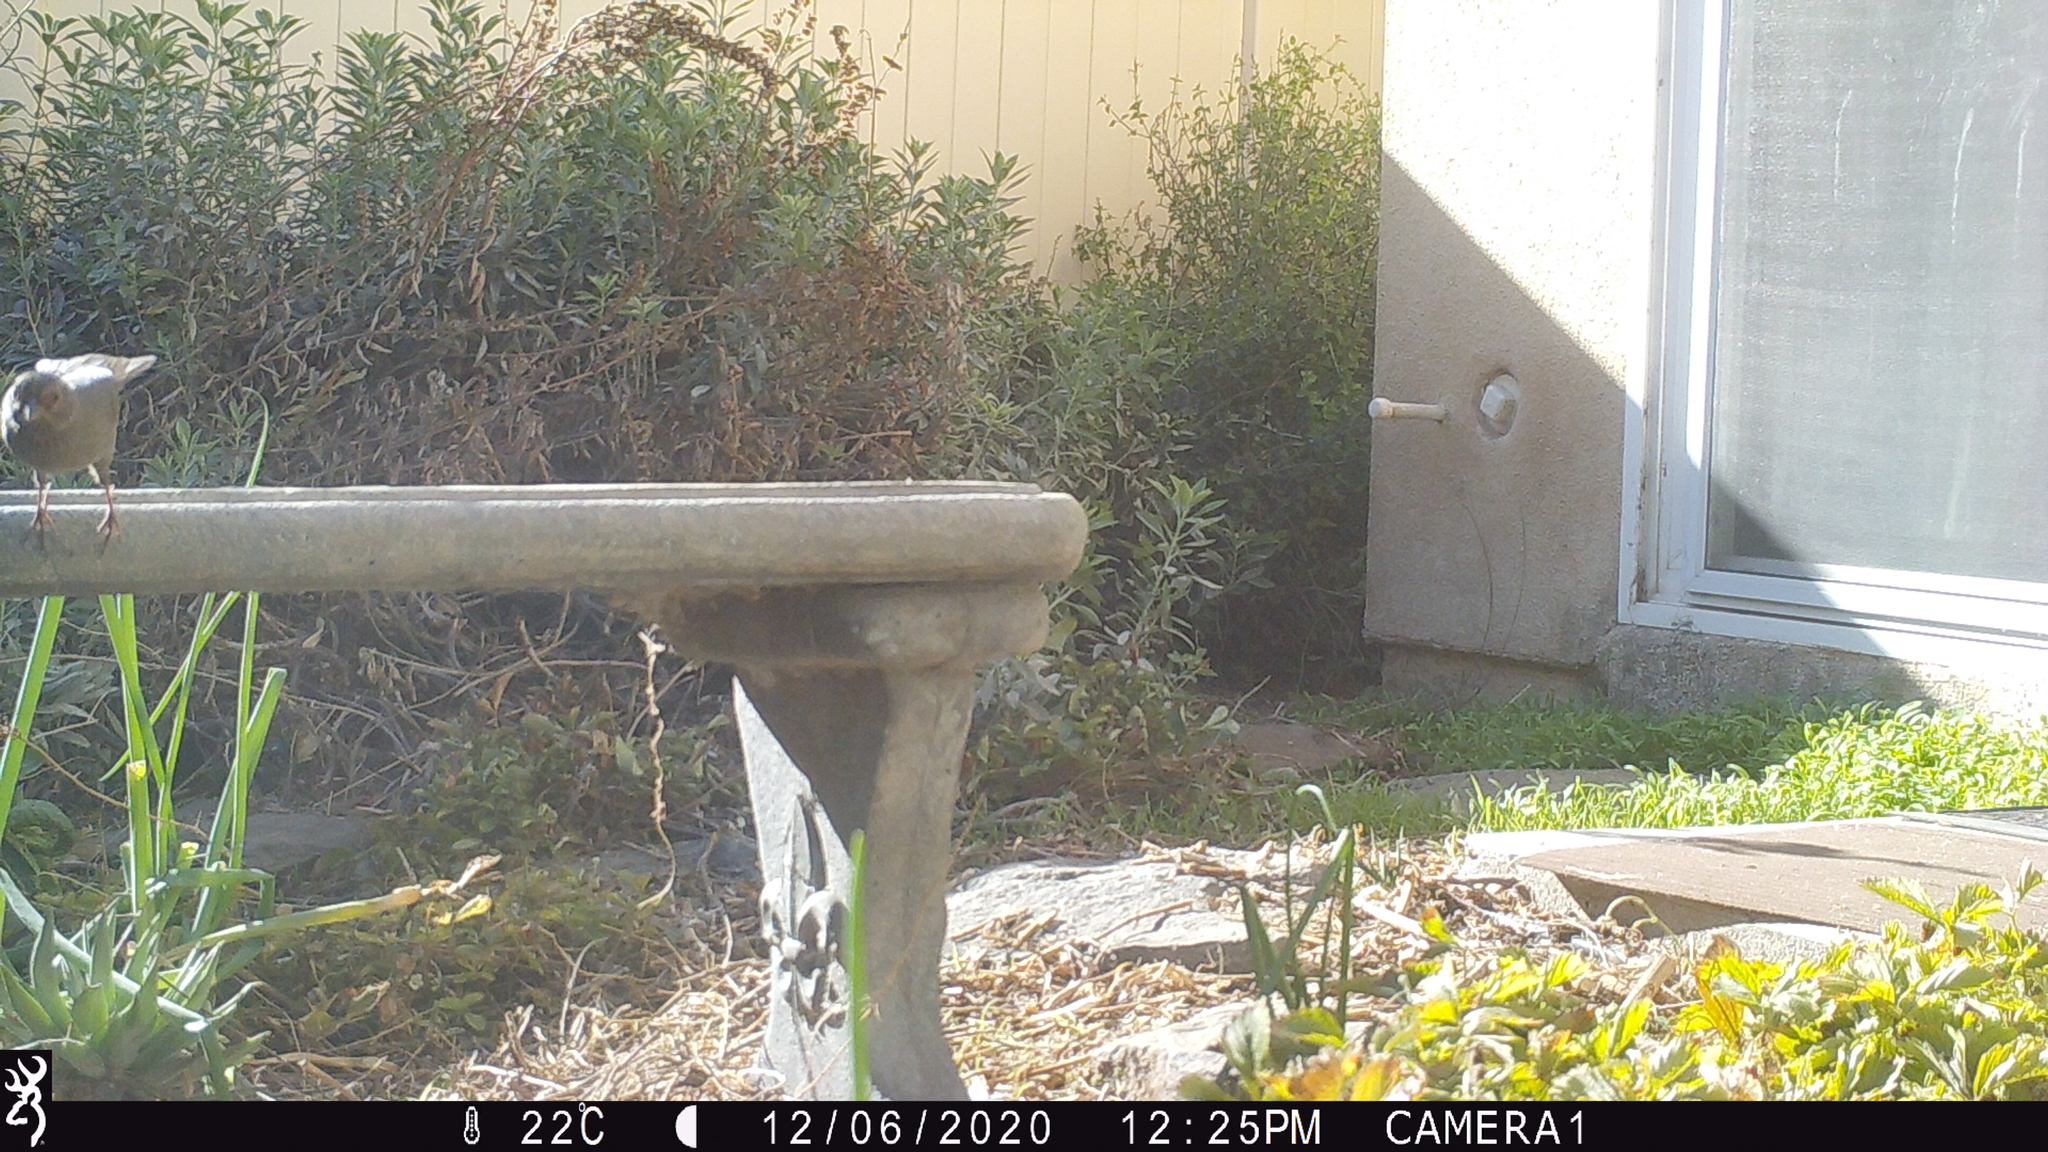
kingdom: Animalia
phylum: Chordata
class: Aves
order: Passeriformes
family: Passerellidae
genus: Melozone
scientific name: Melozone crissalis
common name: California towhee
